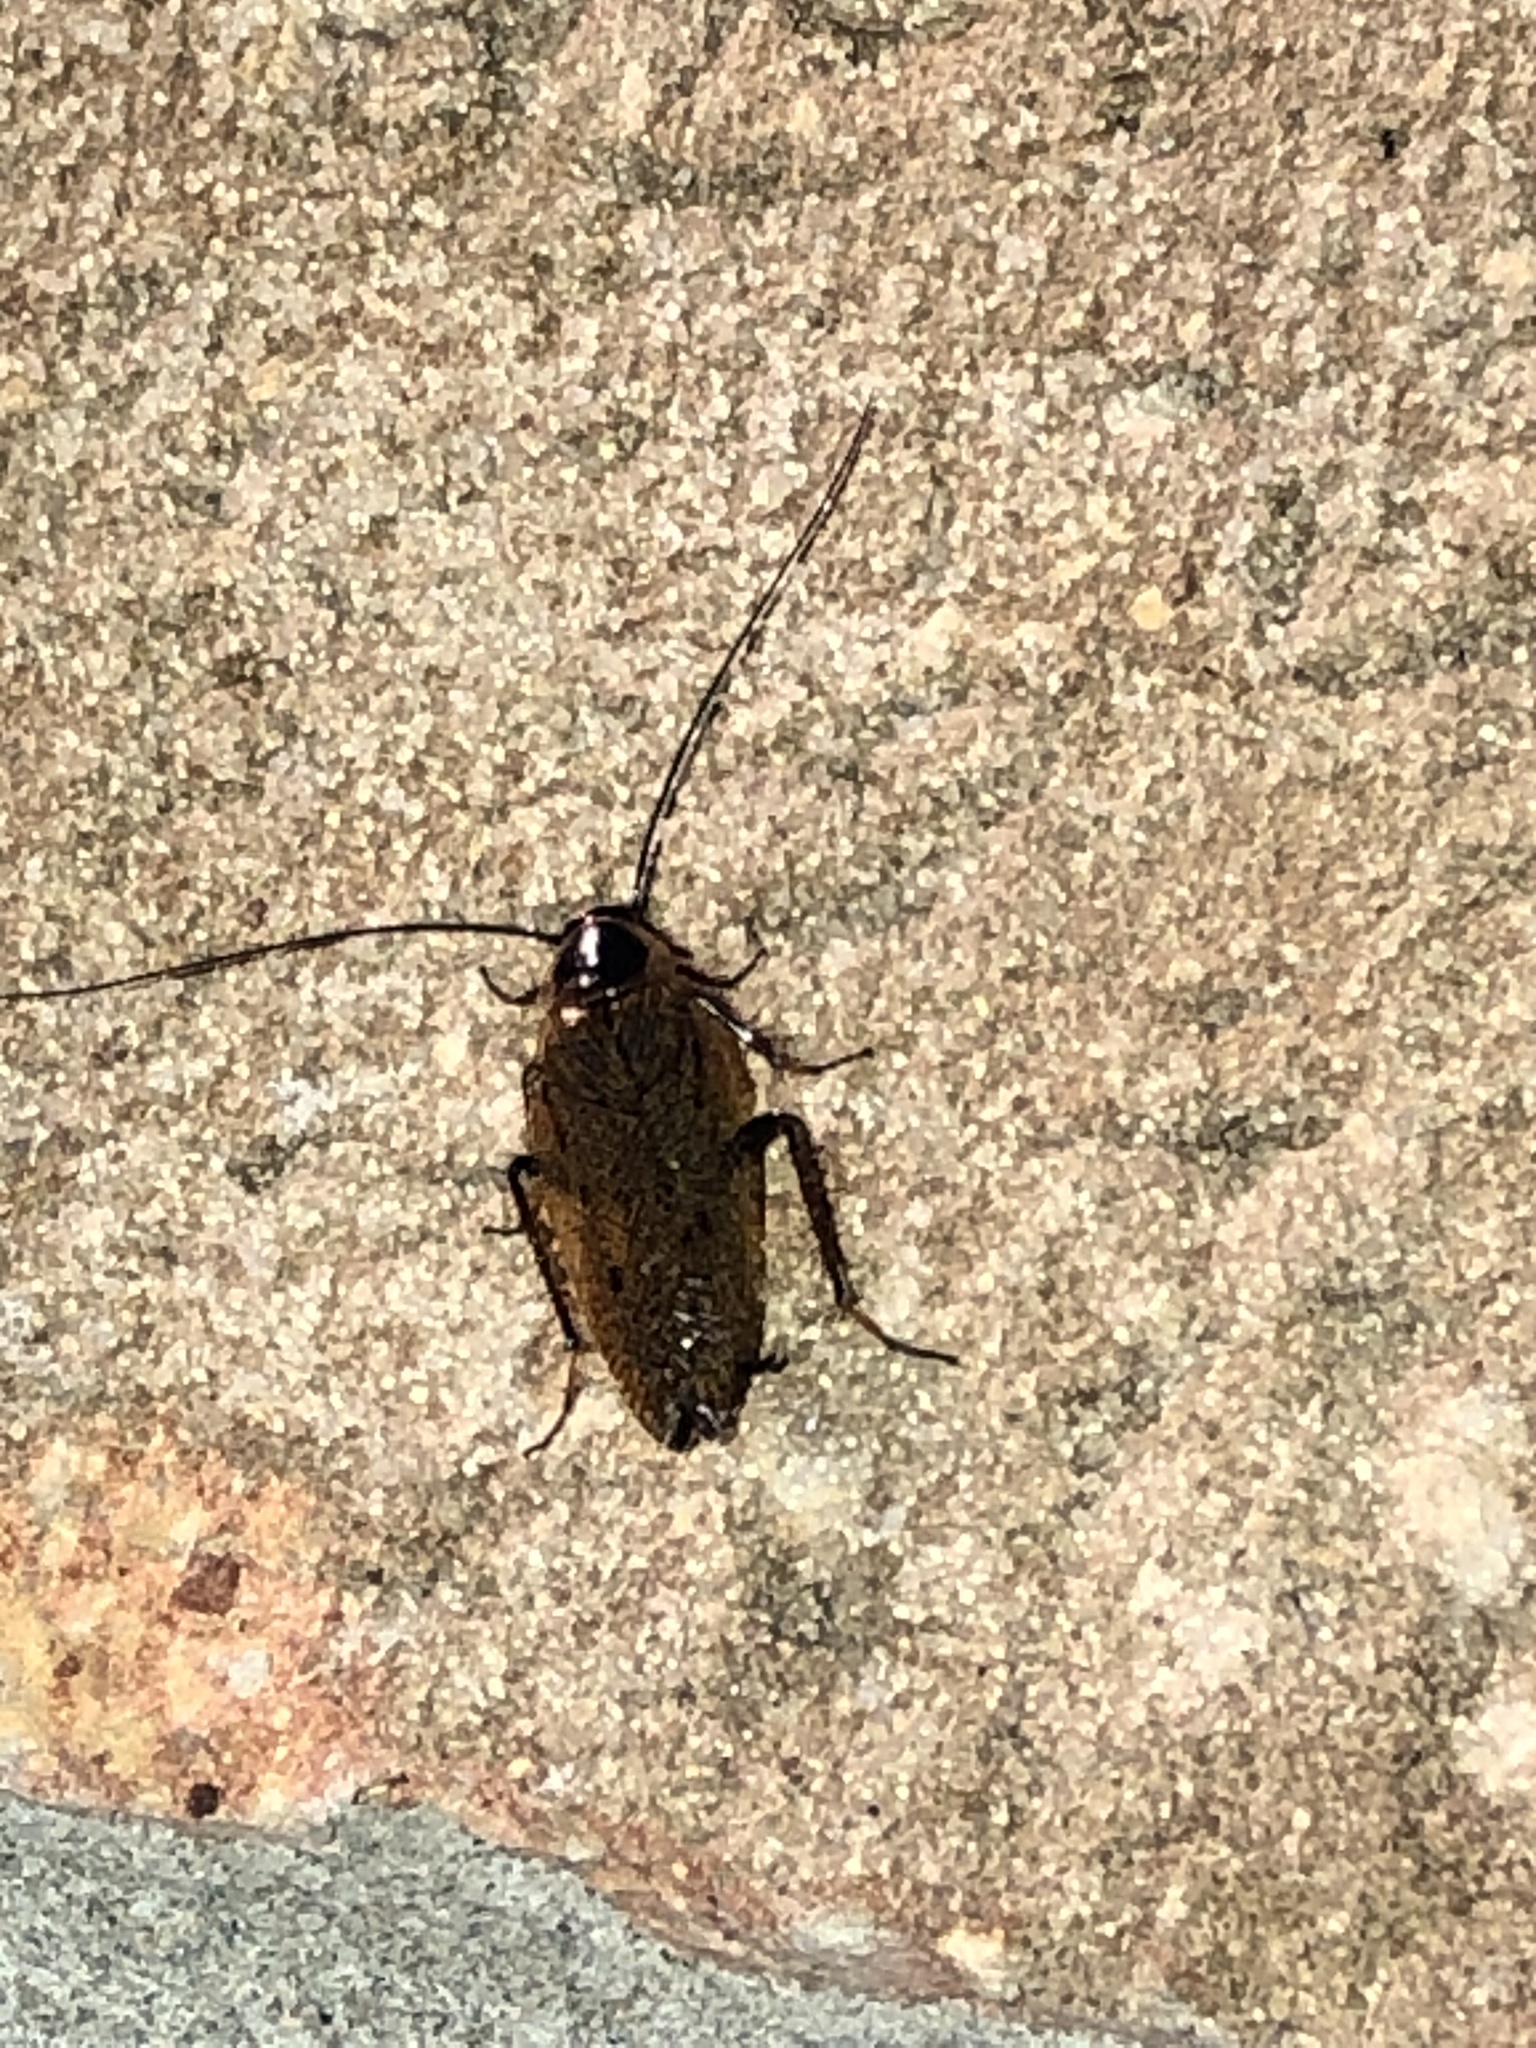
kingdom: Animalia
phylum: Arthropoda
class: Insecta
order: Blattodea
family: Ectobiidae
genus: Ectobius
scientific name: Ectobius lapponicus
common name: Dusky cockroach
